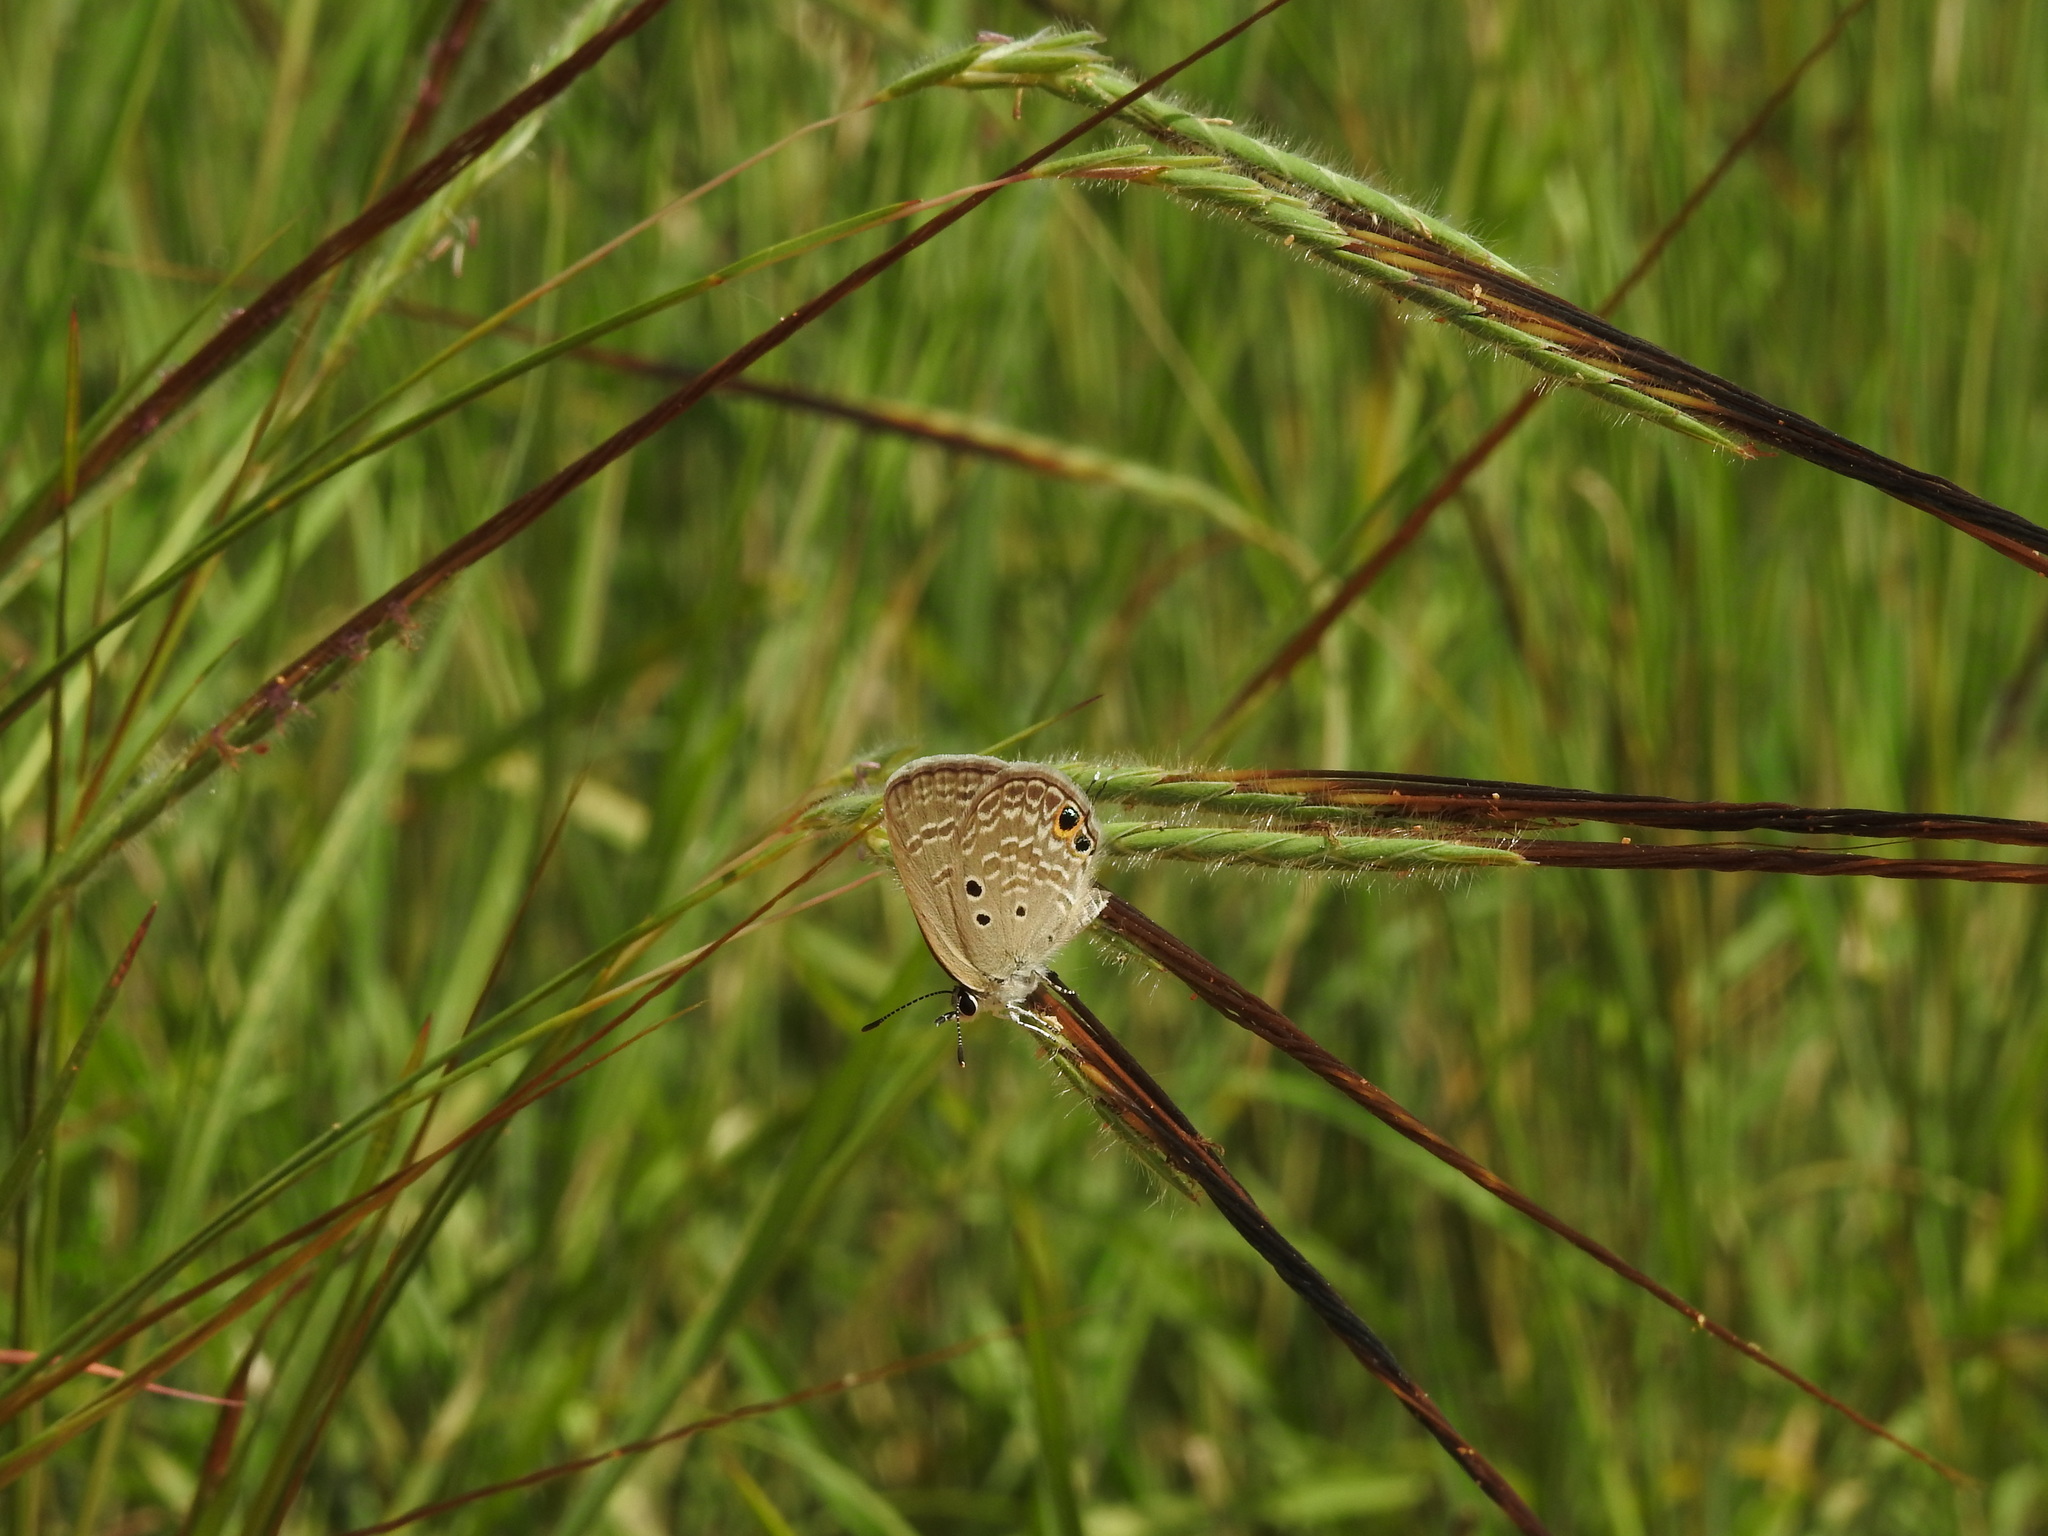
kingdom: Animalia
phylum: Arthropoda
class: Insecta
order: Lepidoptera
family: Lycaenidae
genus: Luthrodes
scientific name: Luthrodes pandava
